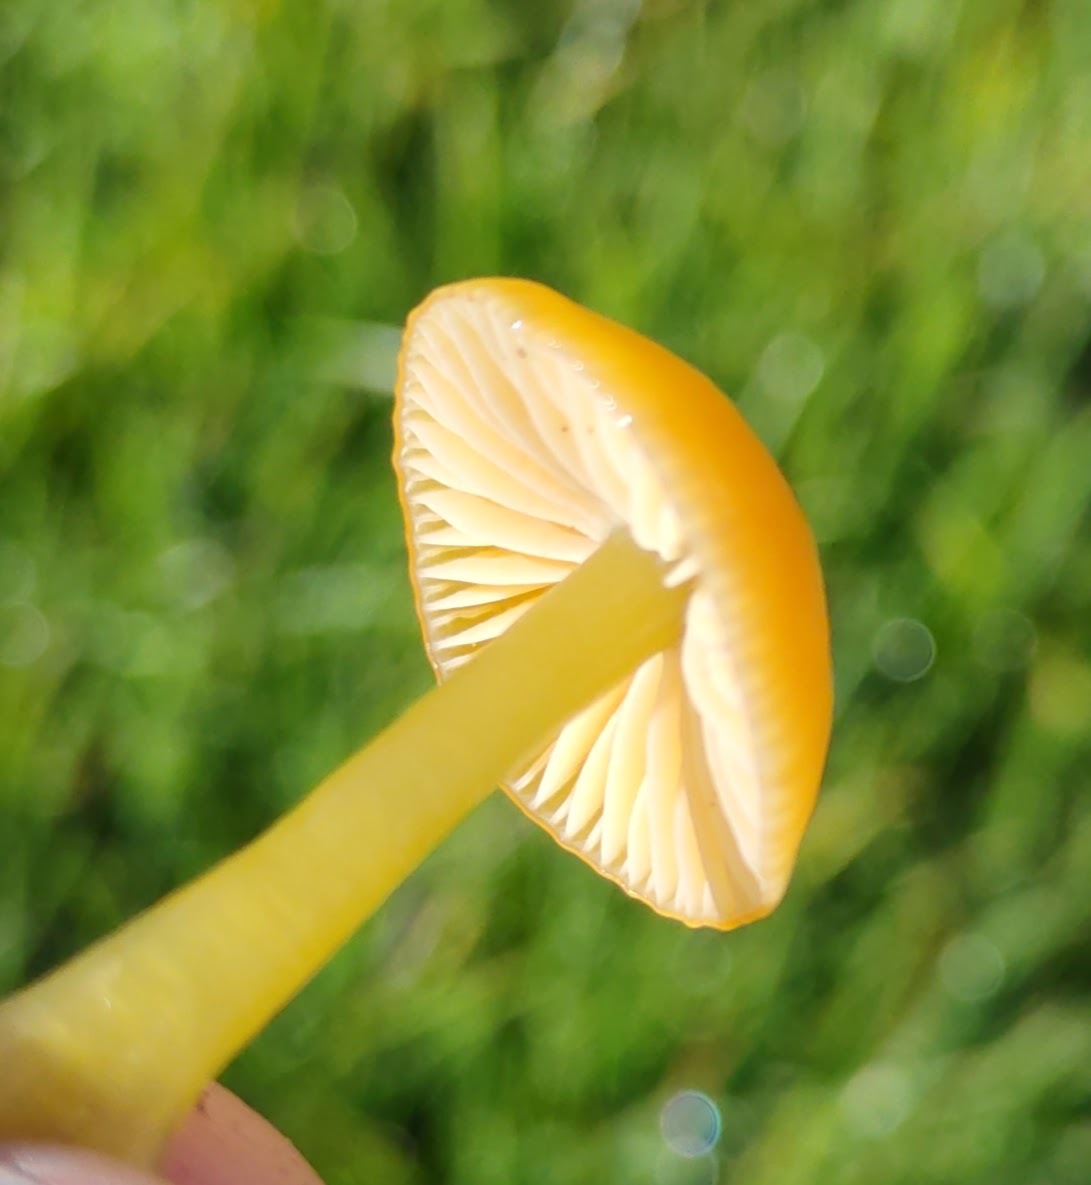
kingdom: Fungi
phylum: Basidiomycota
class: Agaricomycetes
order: Agaricales
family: Hygrophoraceae
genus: Gliophorus
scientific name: Gliophorus psittacinus
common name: Parrot wax-cap
